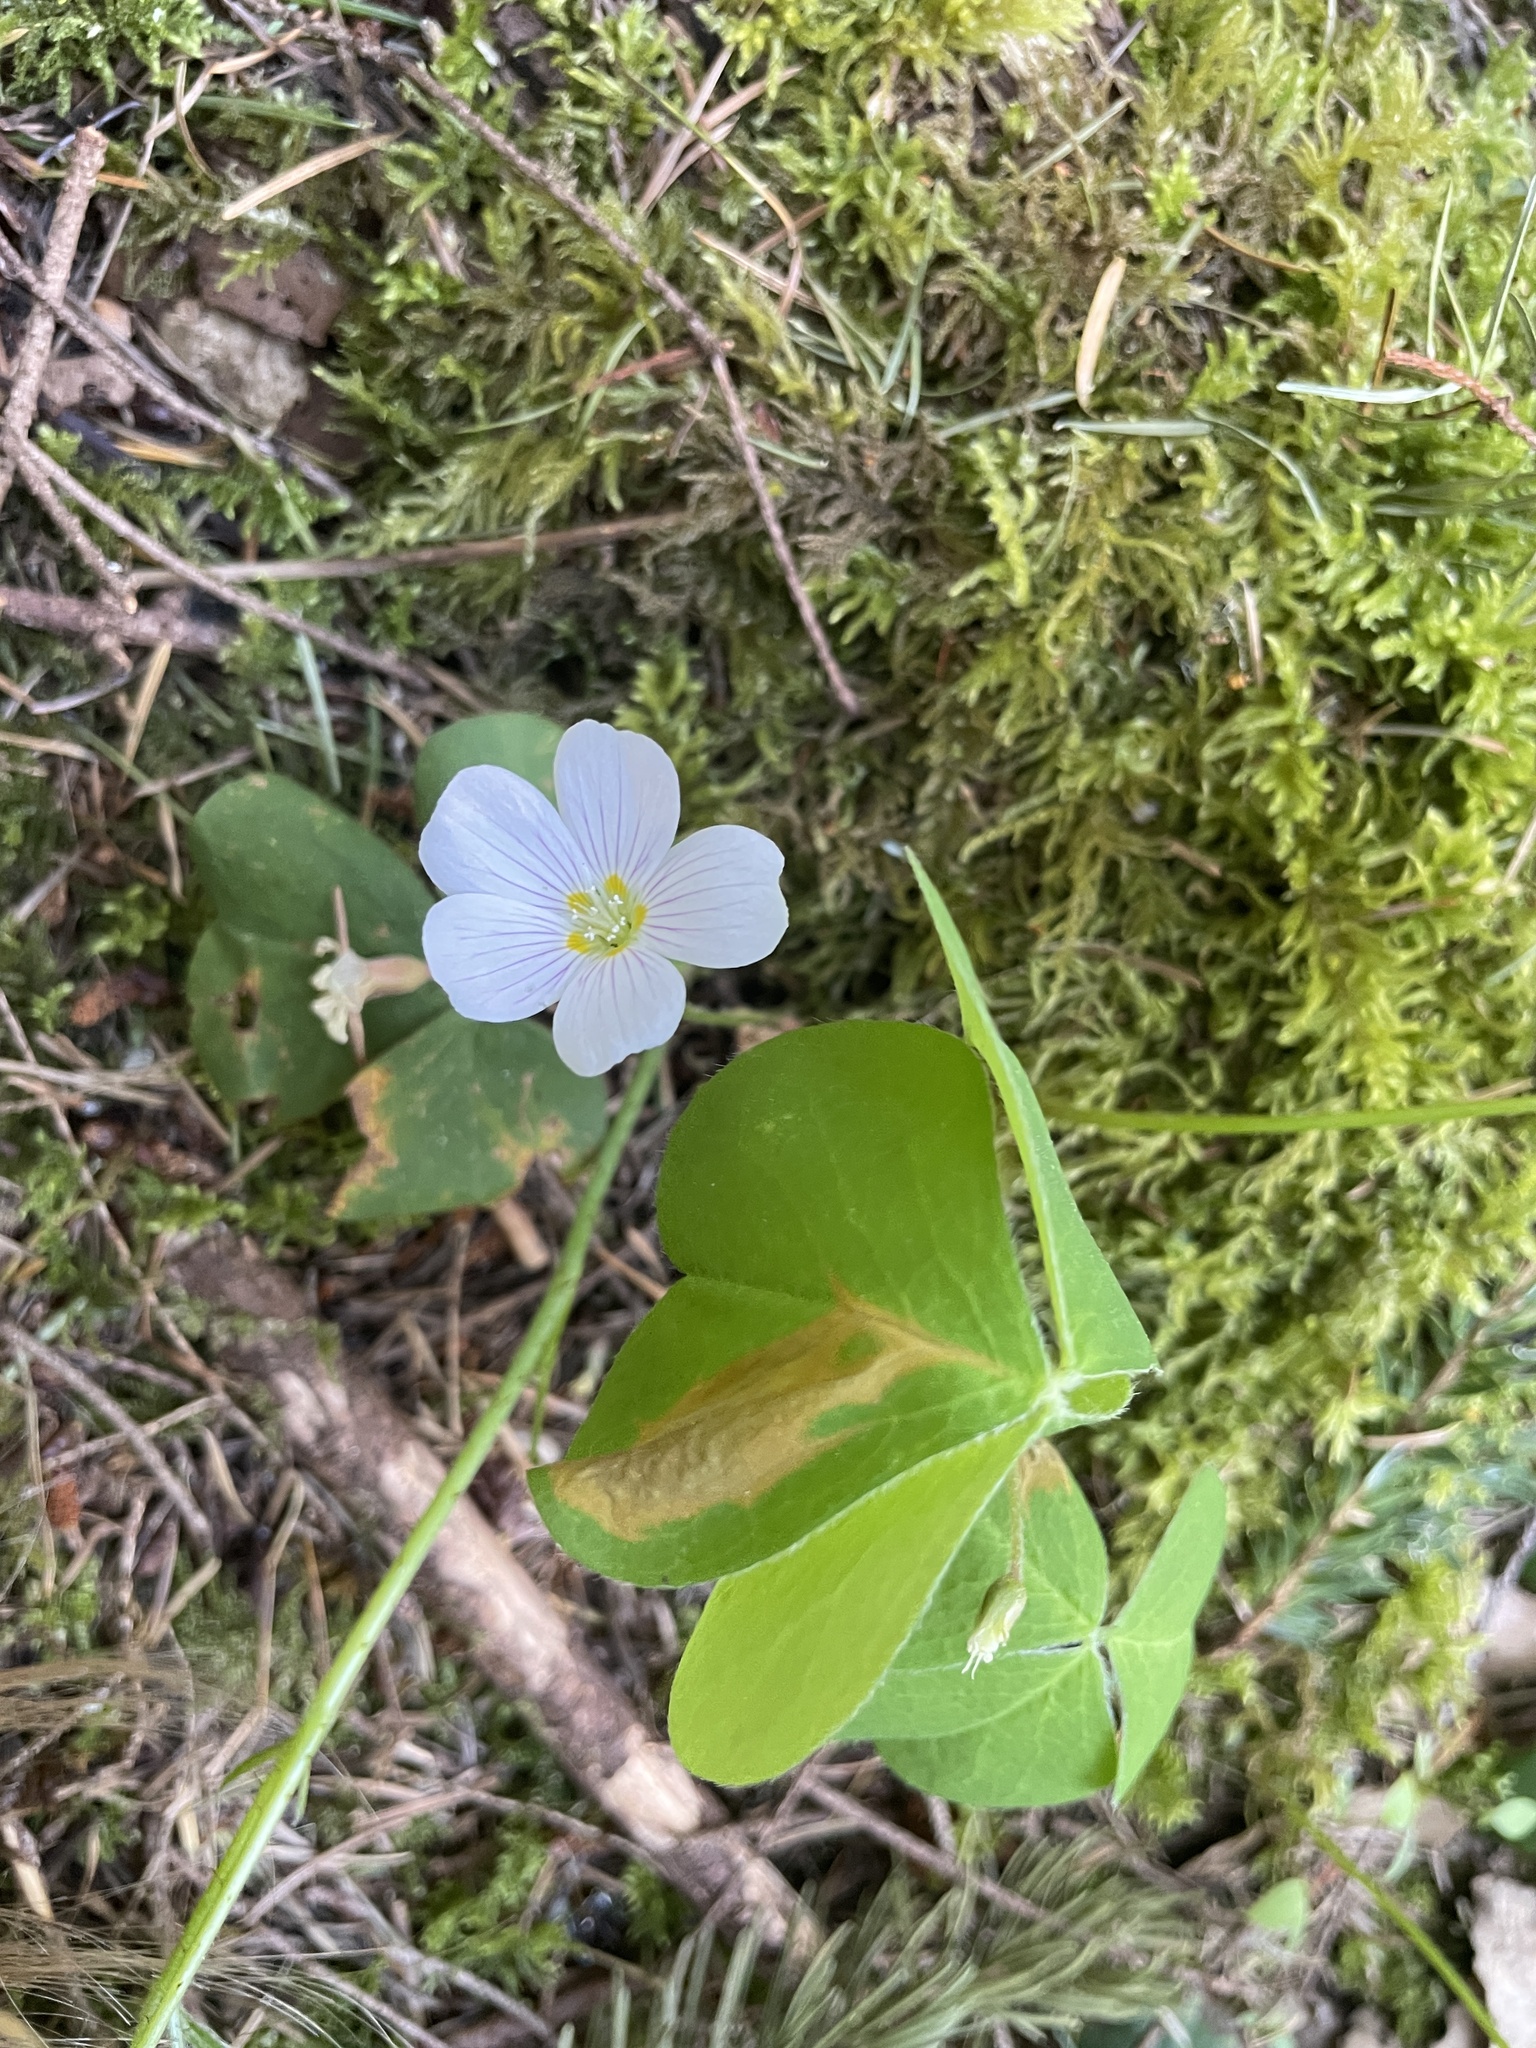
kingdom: Plantae
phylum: Tracheophyta
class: Magnoliopsida
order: Oxalidales
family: Oxalidaceae
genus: Oxalis
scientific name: Oxalis oregana
